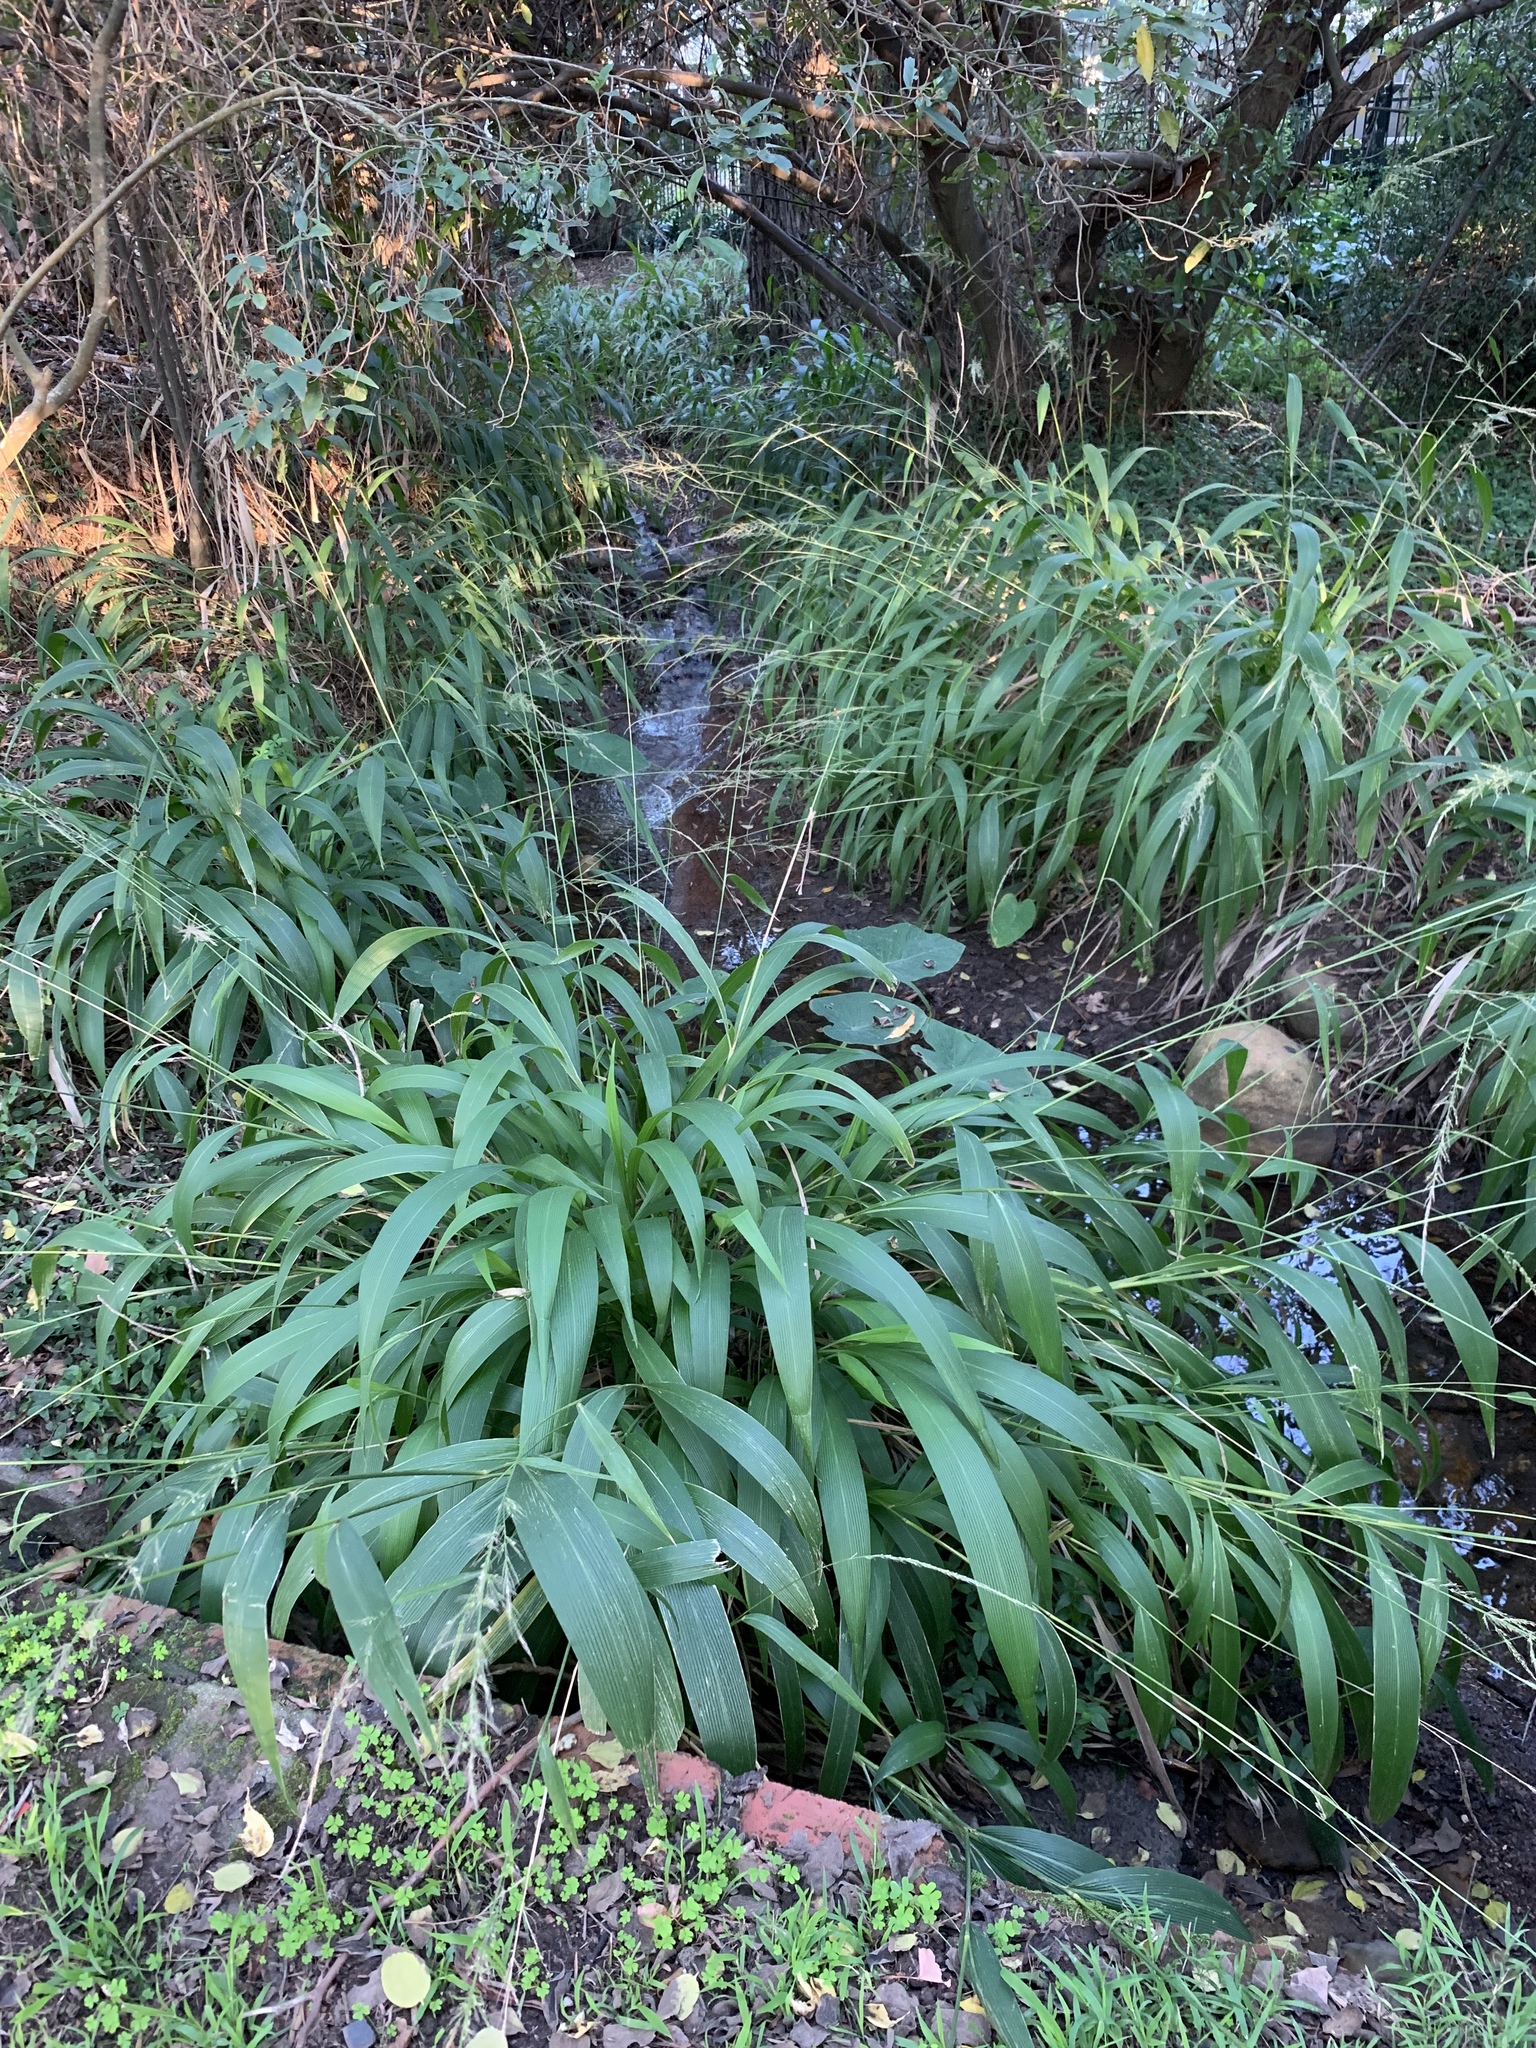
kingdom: Plantae
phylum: Tracheophyta
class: Liliopsida
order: Poales
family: Poaceae
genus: Setaria
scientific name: Setaria megaphylla
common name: Bigleaf bristlegrass
